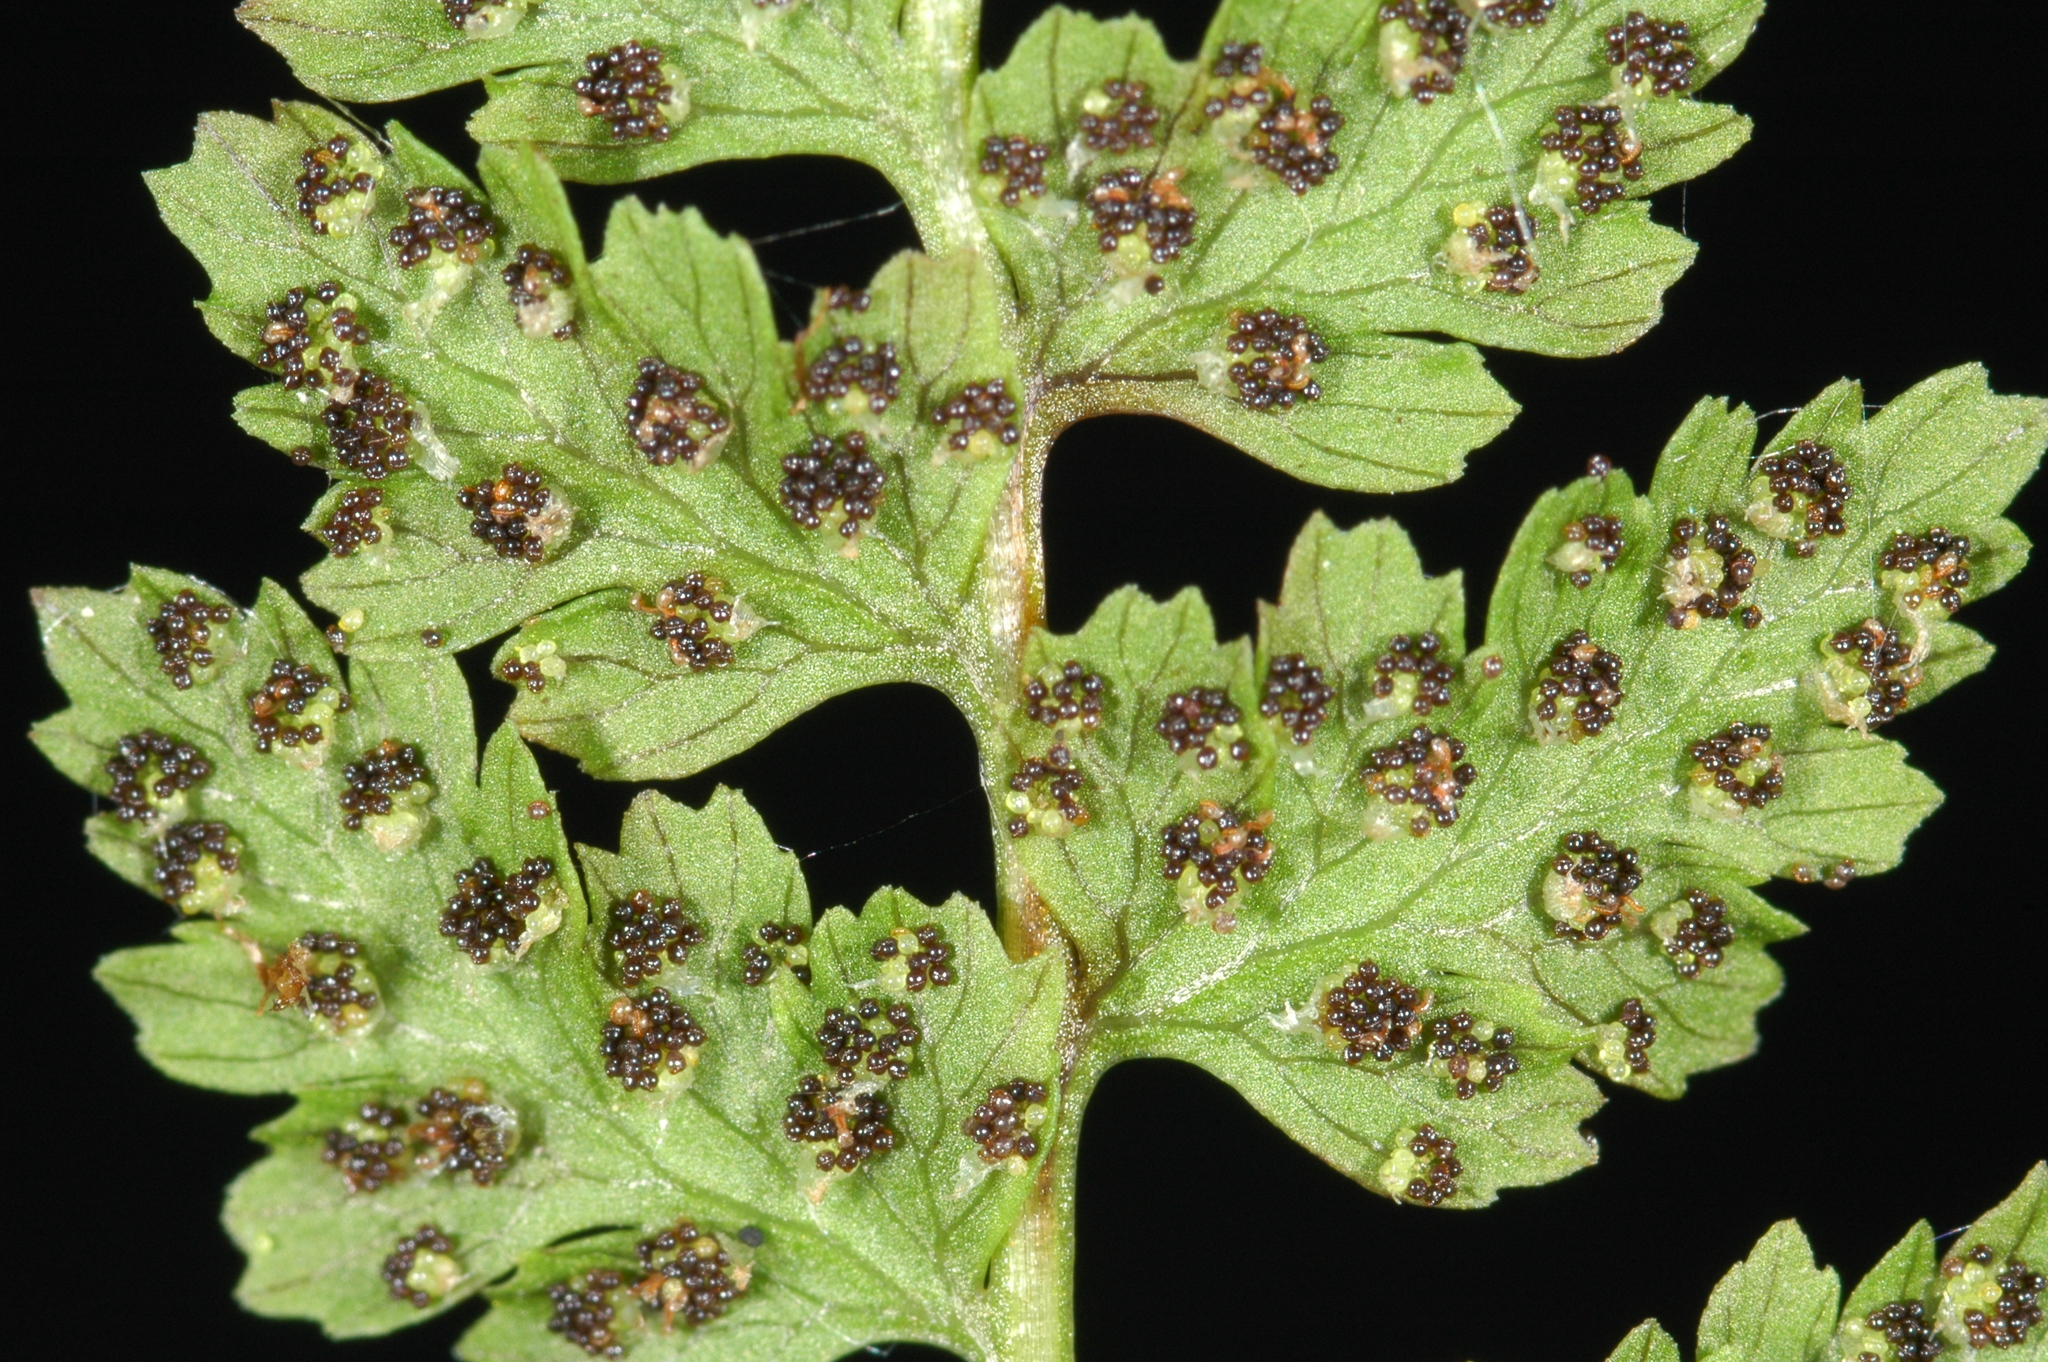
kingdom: Plantae
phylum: Tracheophyta
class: Polypodiopsida
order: Polypodiales
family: Cystopteridaceae
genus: Cystopteris
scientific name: Cystopteris fragilis
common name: Brittle bladder fern
